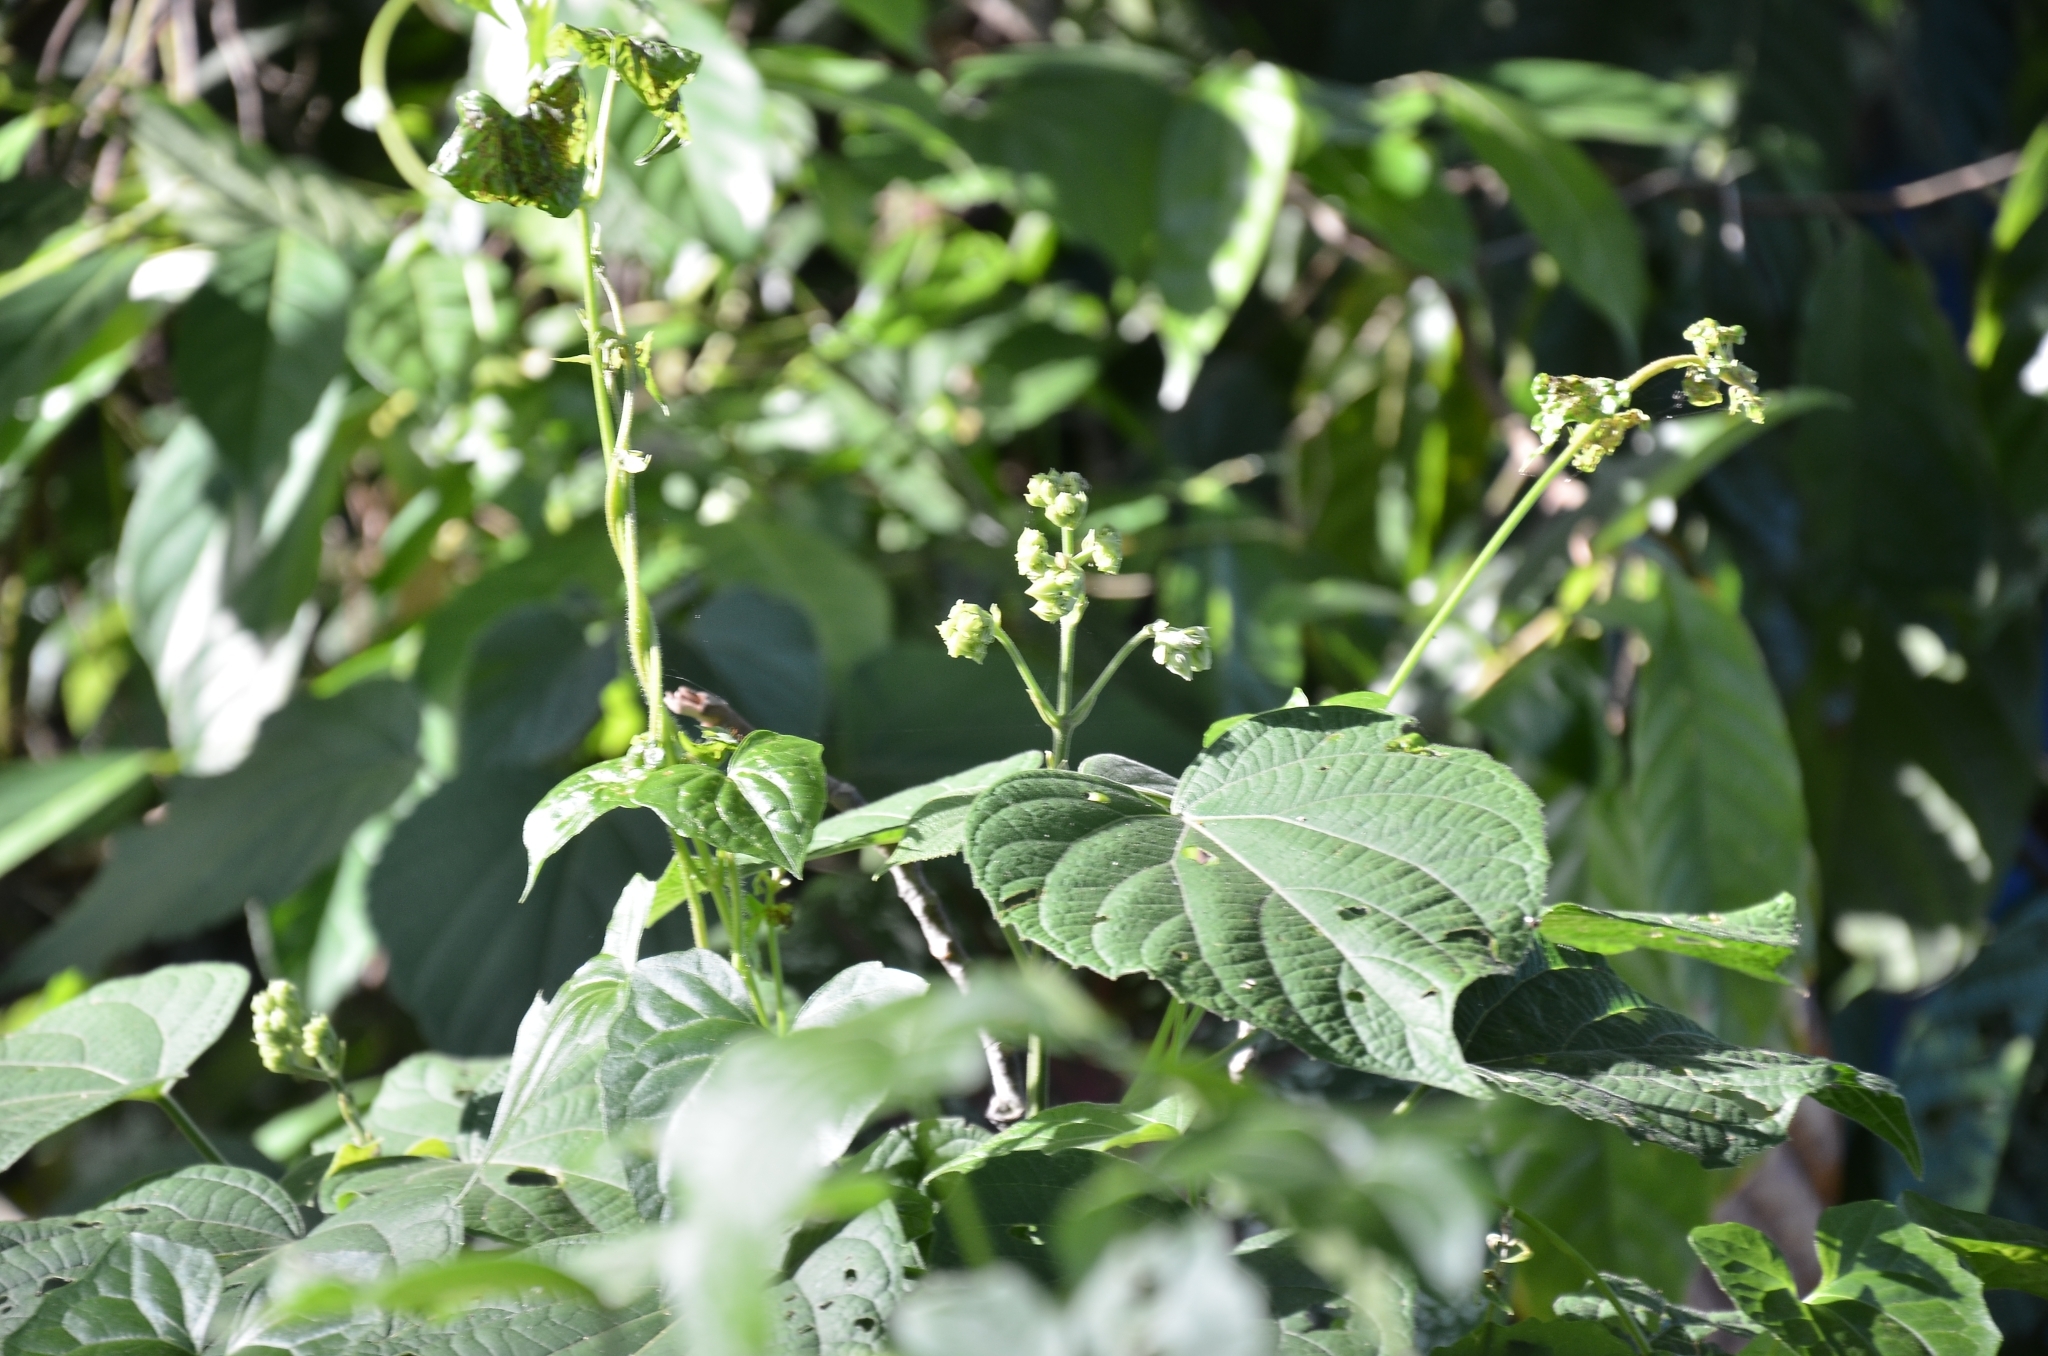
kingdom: Plantae
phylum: Tracheophyta
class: Magnoliopsida
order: Lamiales
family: Lamiaceae
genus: Clerodendrum
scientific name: Clerodendrum infortunatum
